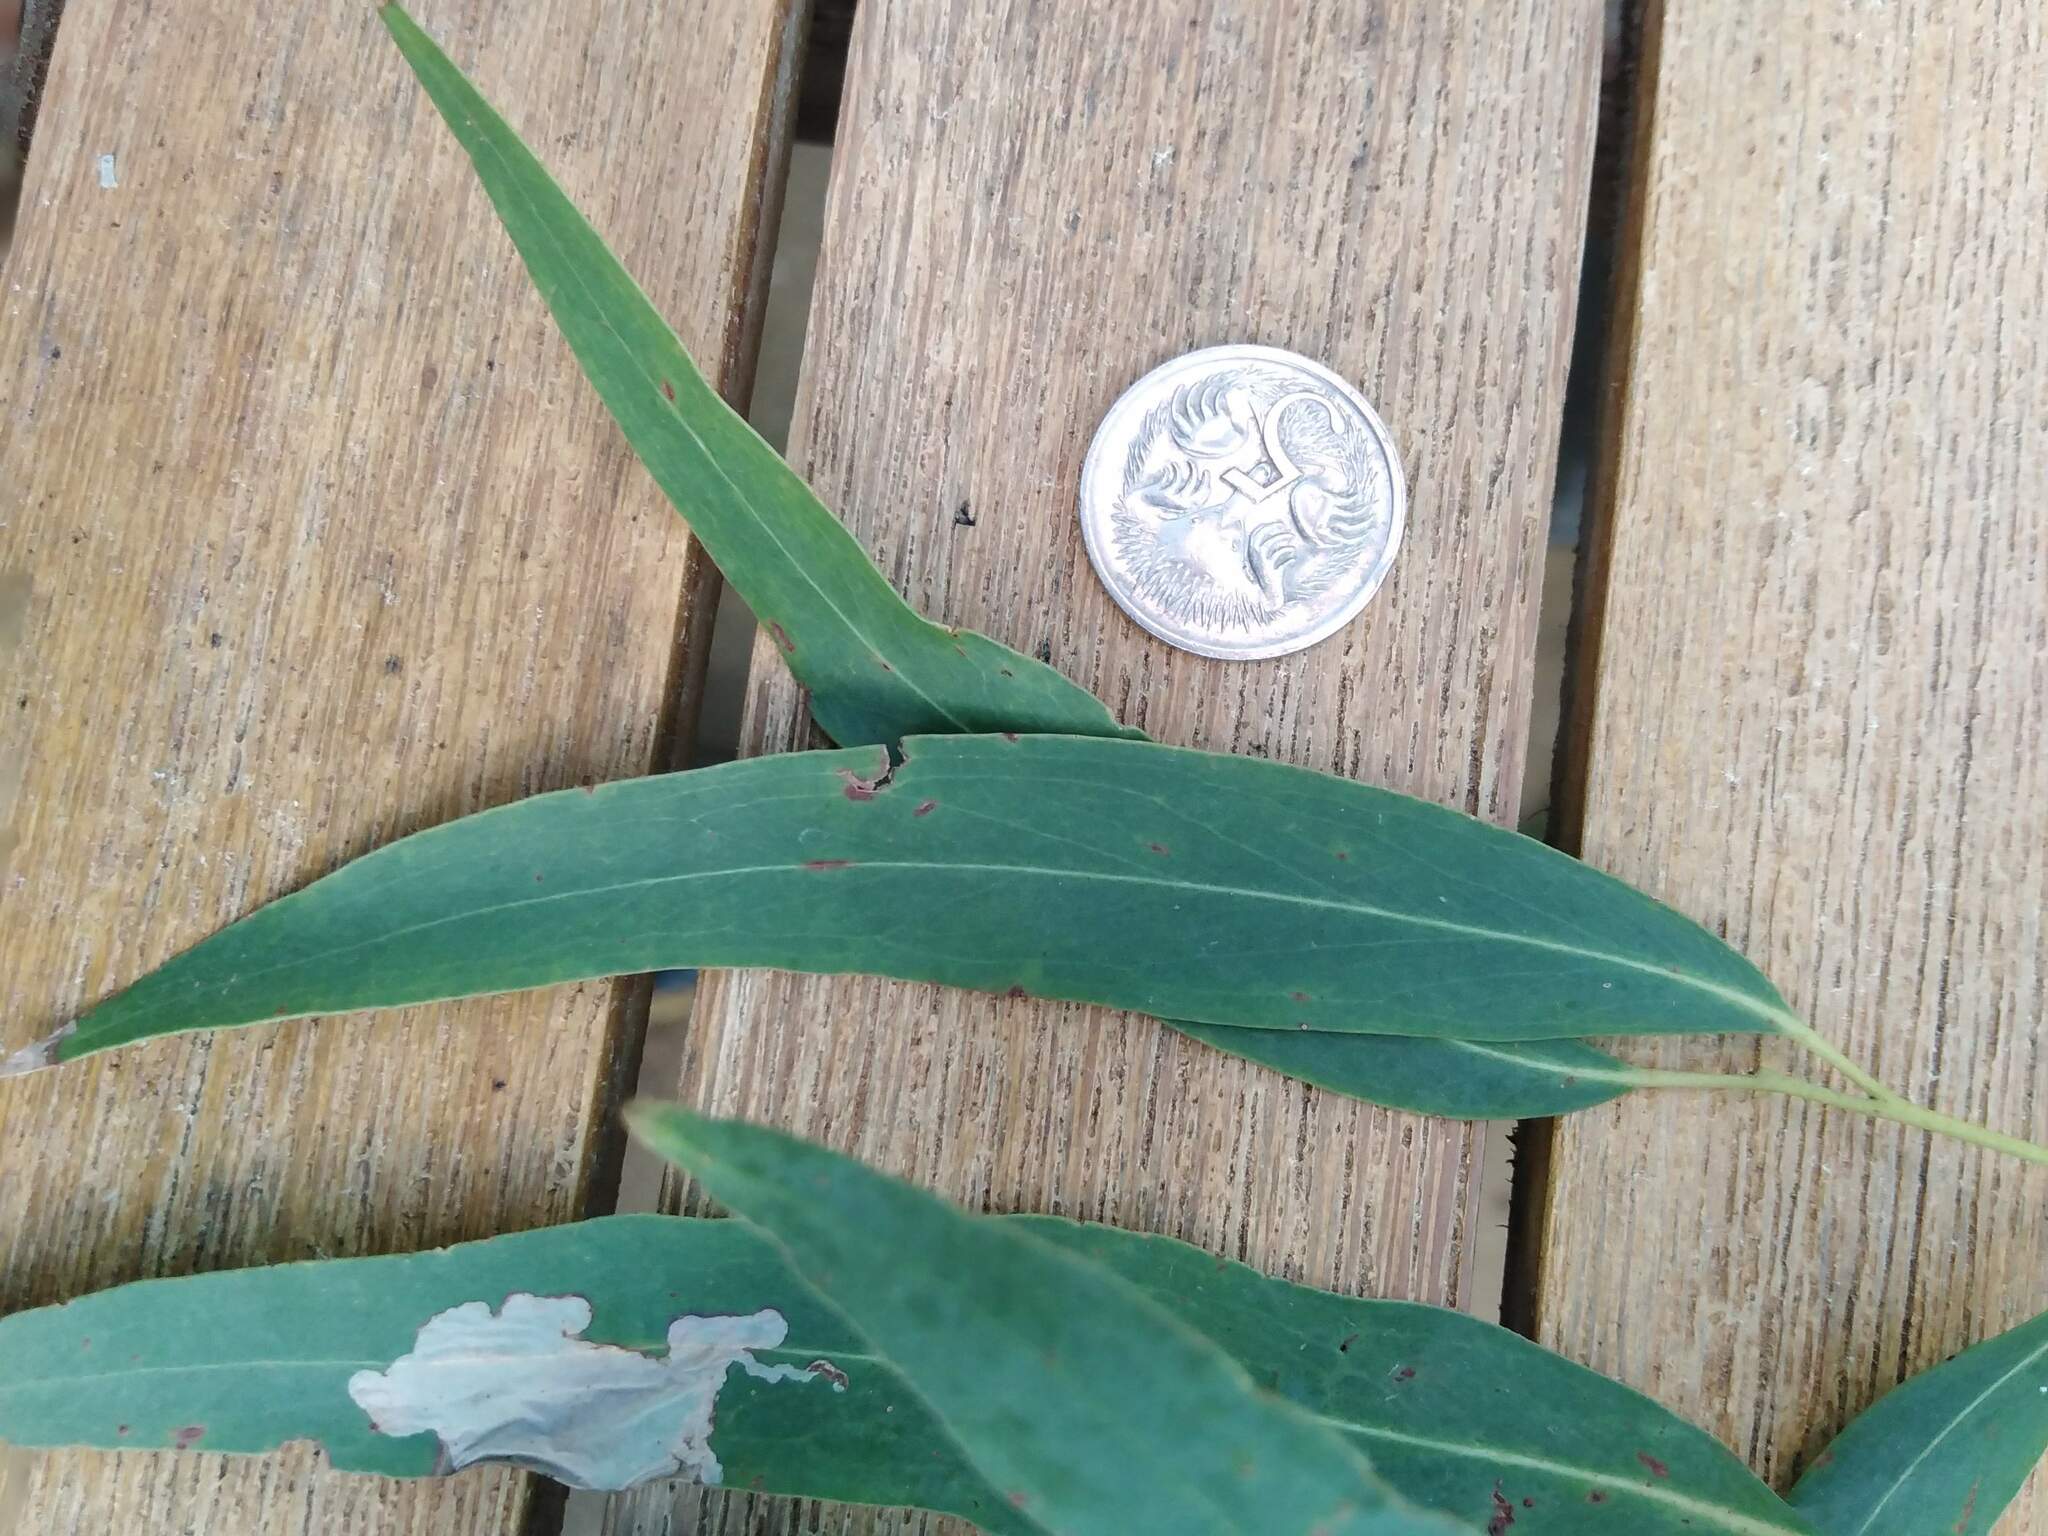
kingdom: Plantae
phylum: Tracheophyta
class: Magnoliopsida
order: Myrtales
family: Myrtaceae
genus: Eucalyptus
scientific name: Eucalyptus elata
